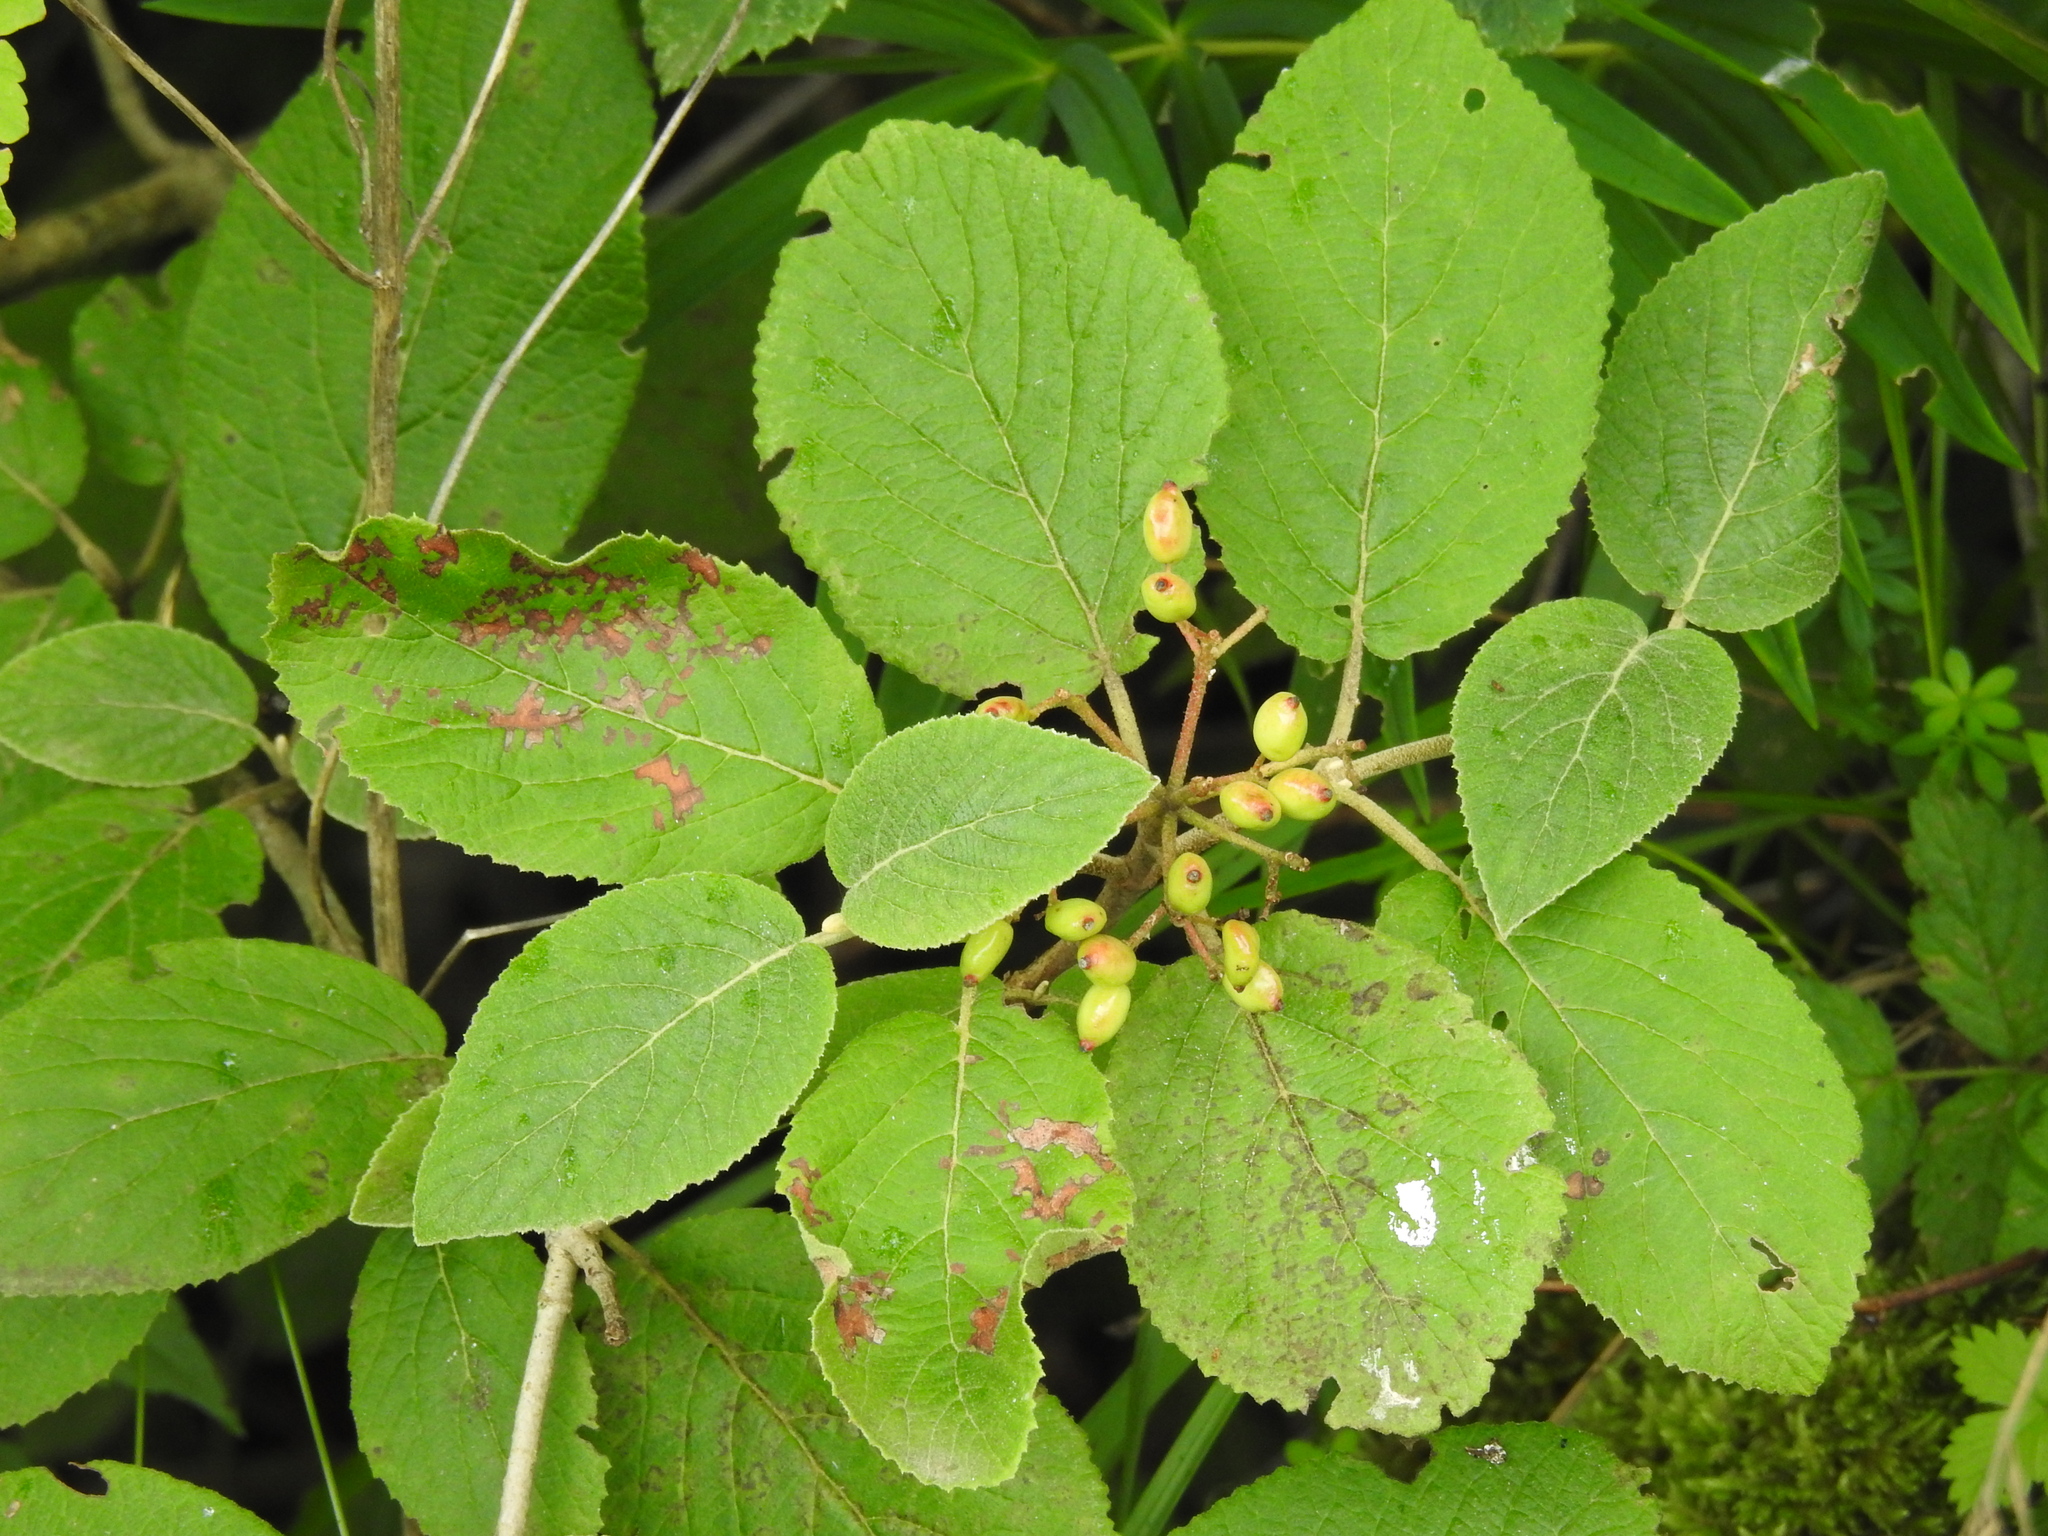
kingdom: Plantae
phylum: Tracheophyta
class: Magnoliopsida
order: Dipsacales
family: Viburnaceae
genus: Viburnum
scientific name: Viburnum lantana
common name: Wayfaring tree
